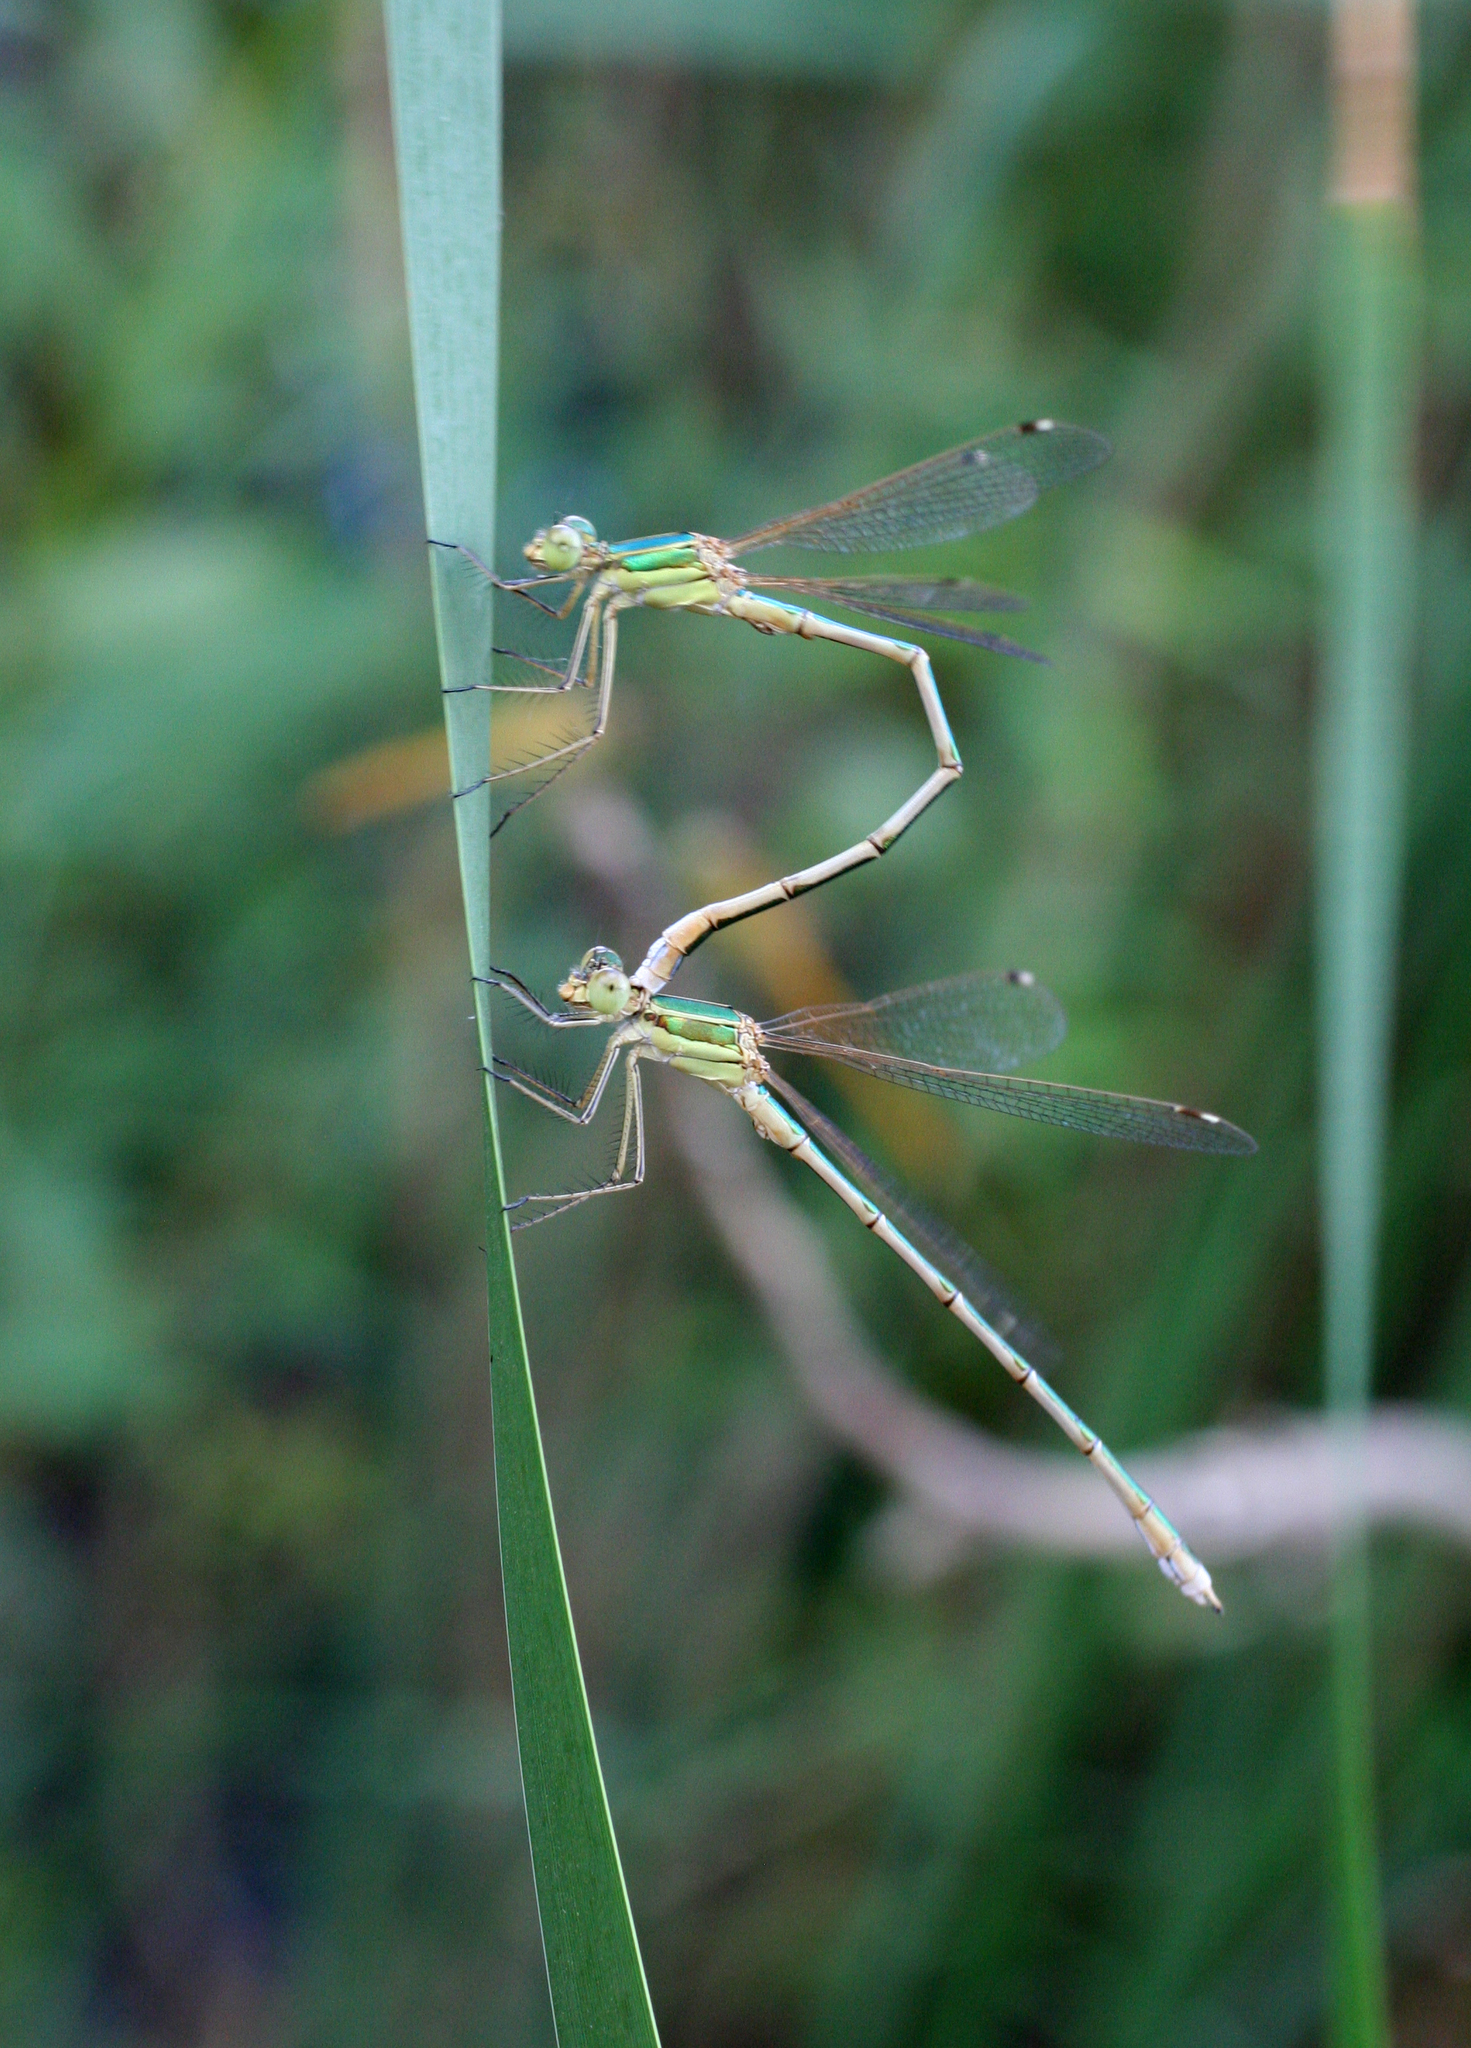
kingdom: Animalia
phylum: Arthropoda
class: Insecta
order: Odonata
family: Lestidae
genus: Lestes
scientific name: Lestes barbarus
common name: Migrant spreadwing
